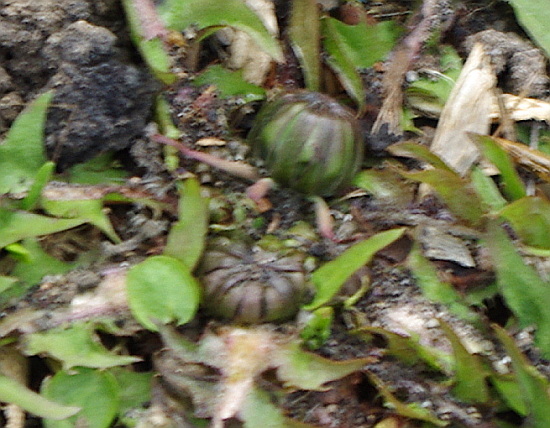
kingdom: Plantae
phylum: Tracheophyta
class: Magnoliopsida
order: Asterales
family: Asteraceae
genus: Taraxacum
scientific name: Taraxacum officinale
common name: Common dandelion
